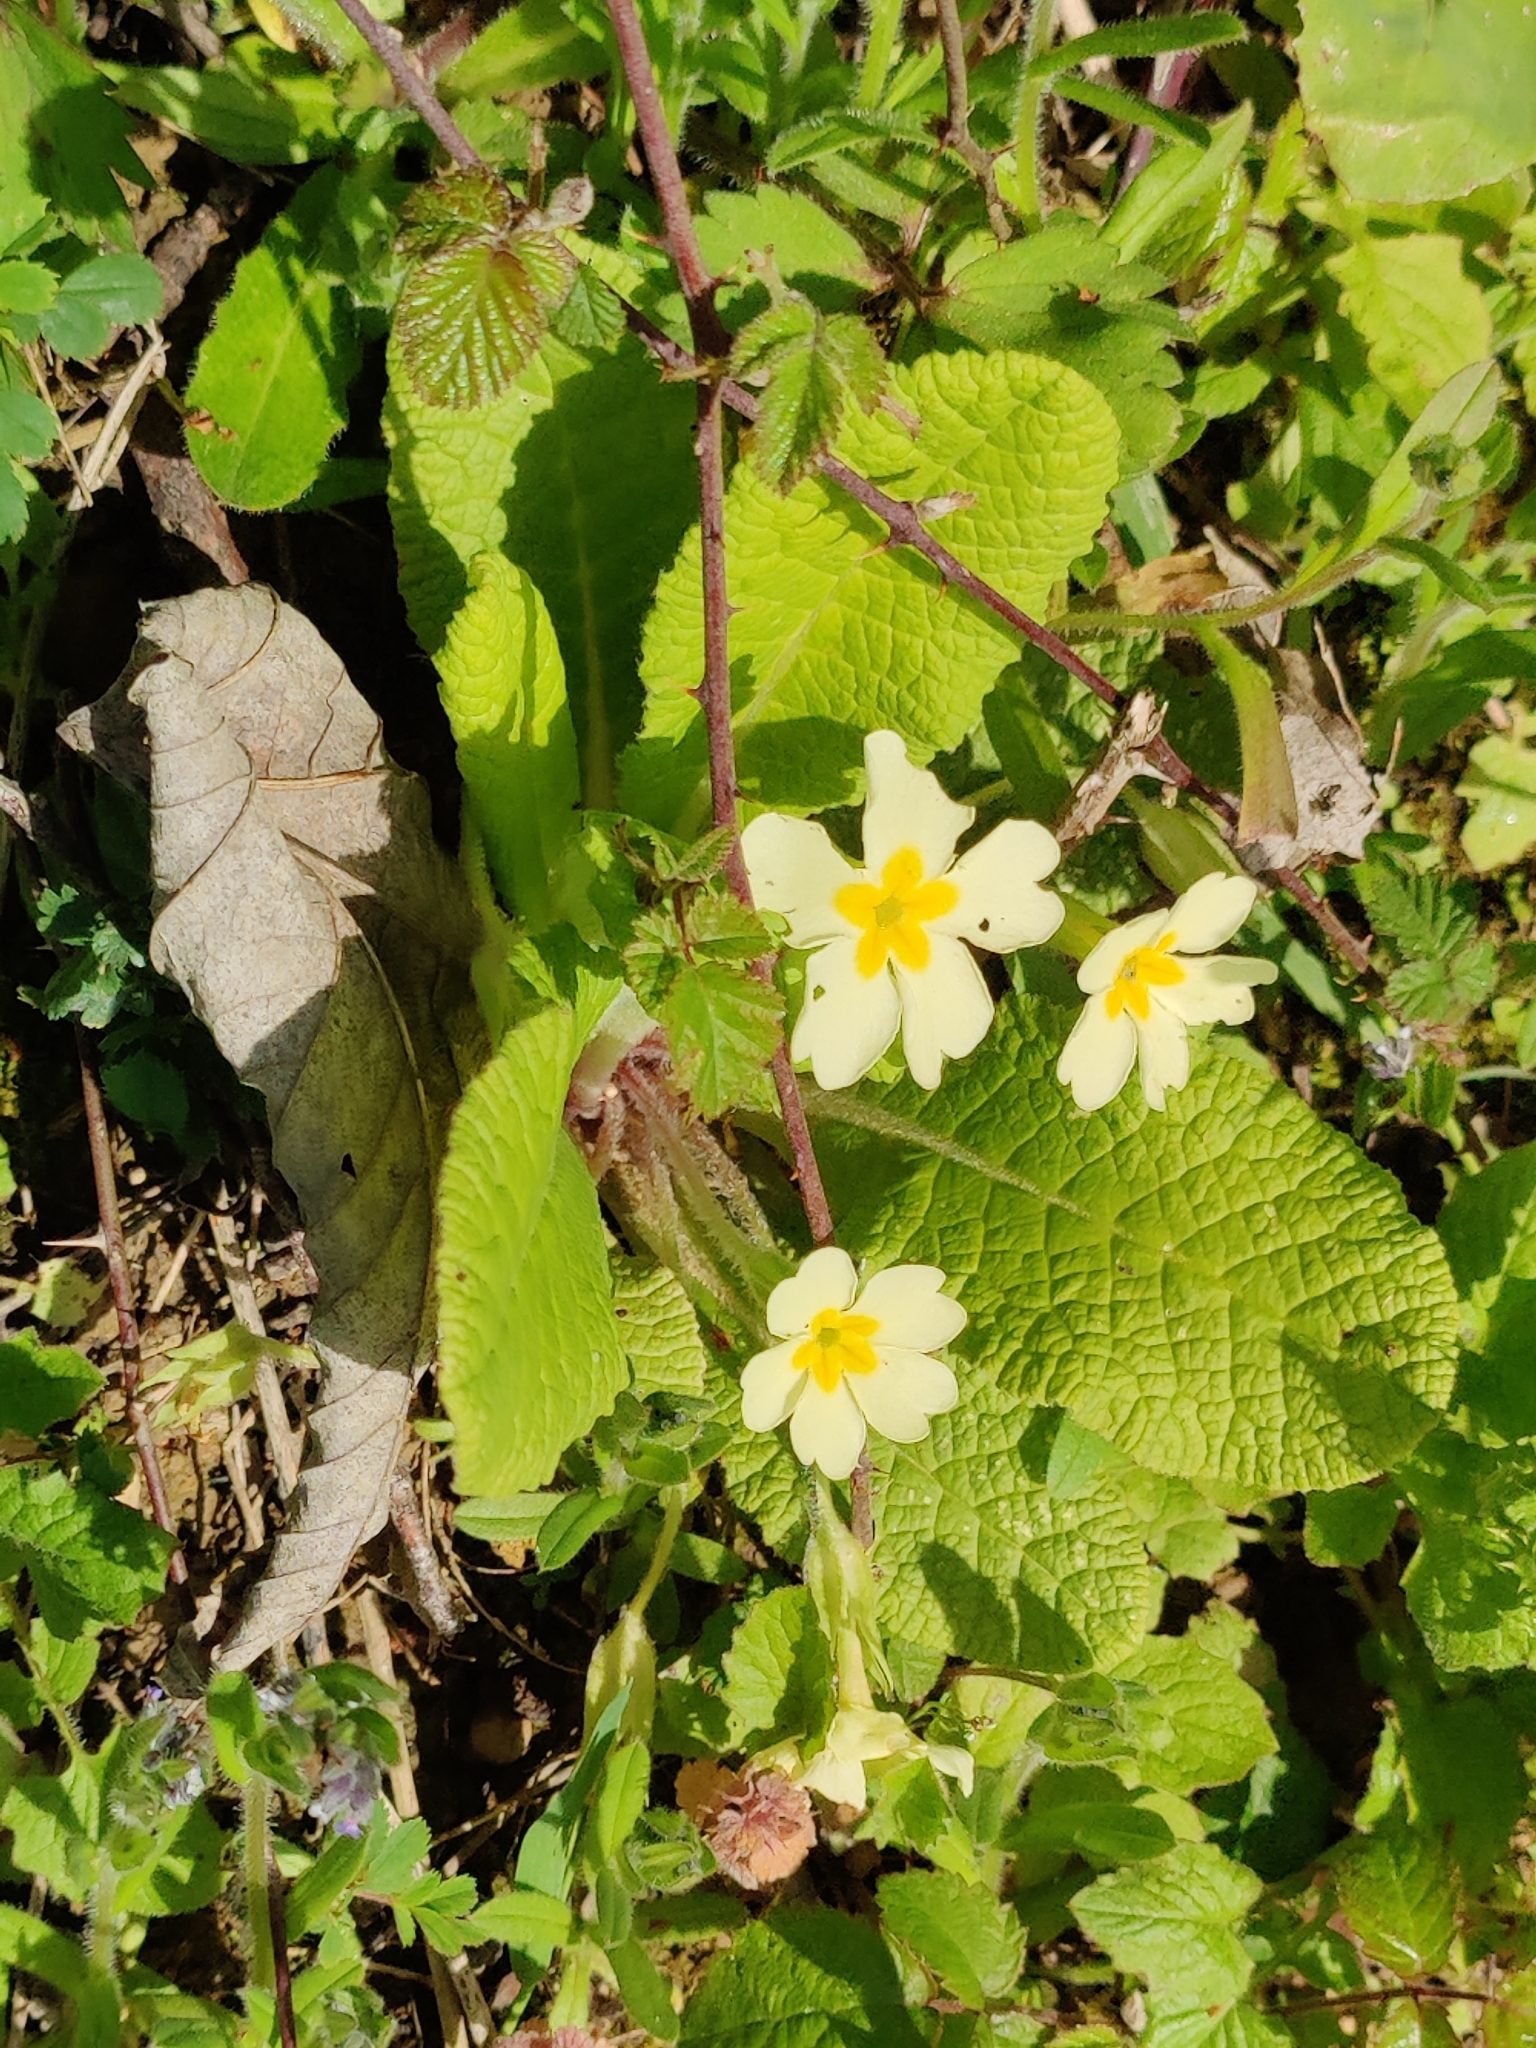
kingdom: Plantae
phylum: Tracheophyta
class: Magnoliopsida
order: Ericales
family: Primulaceae
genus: Primula
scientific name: Primula vulgaris
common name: Primrose
